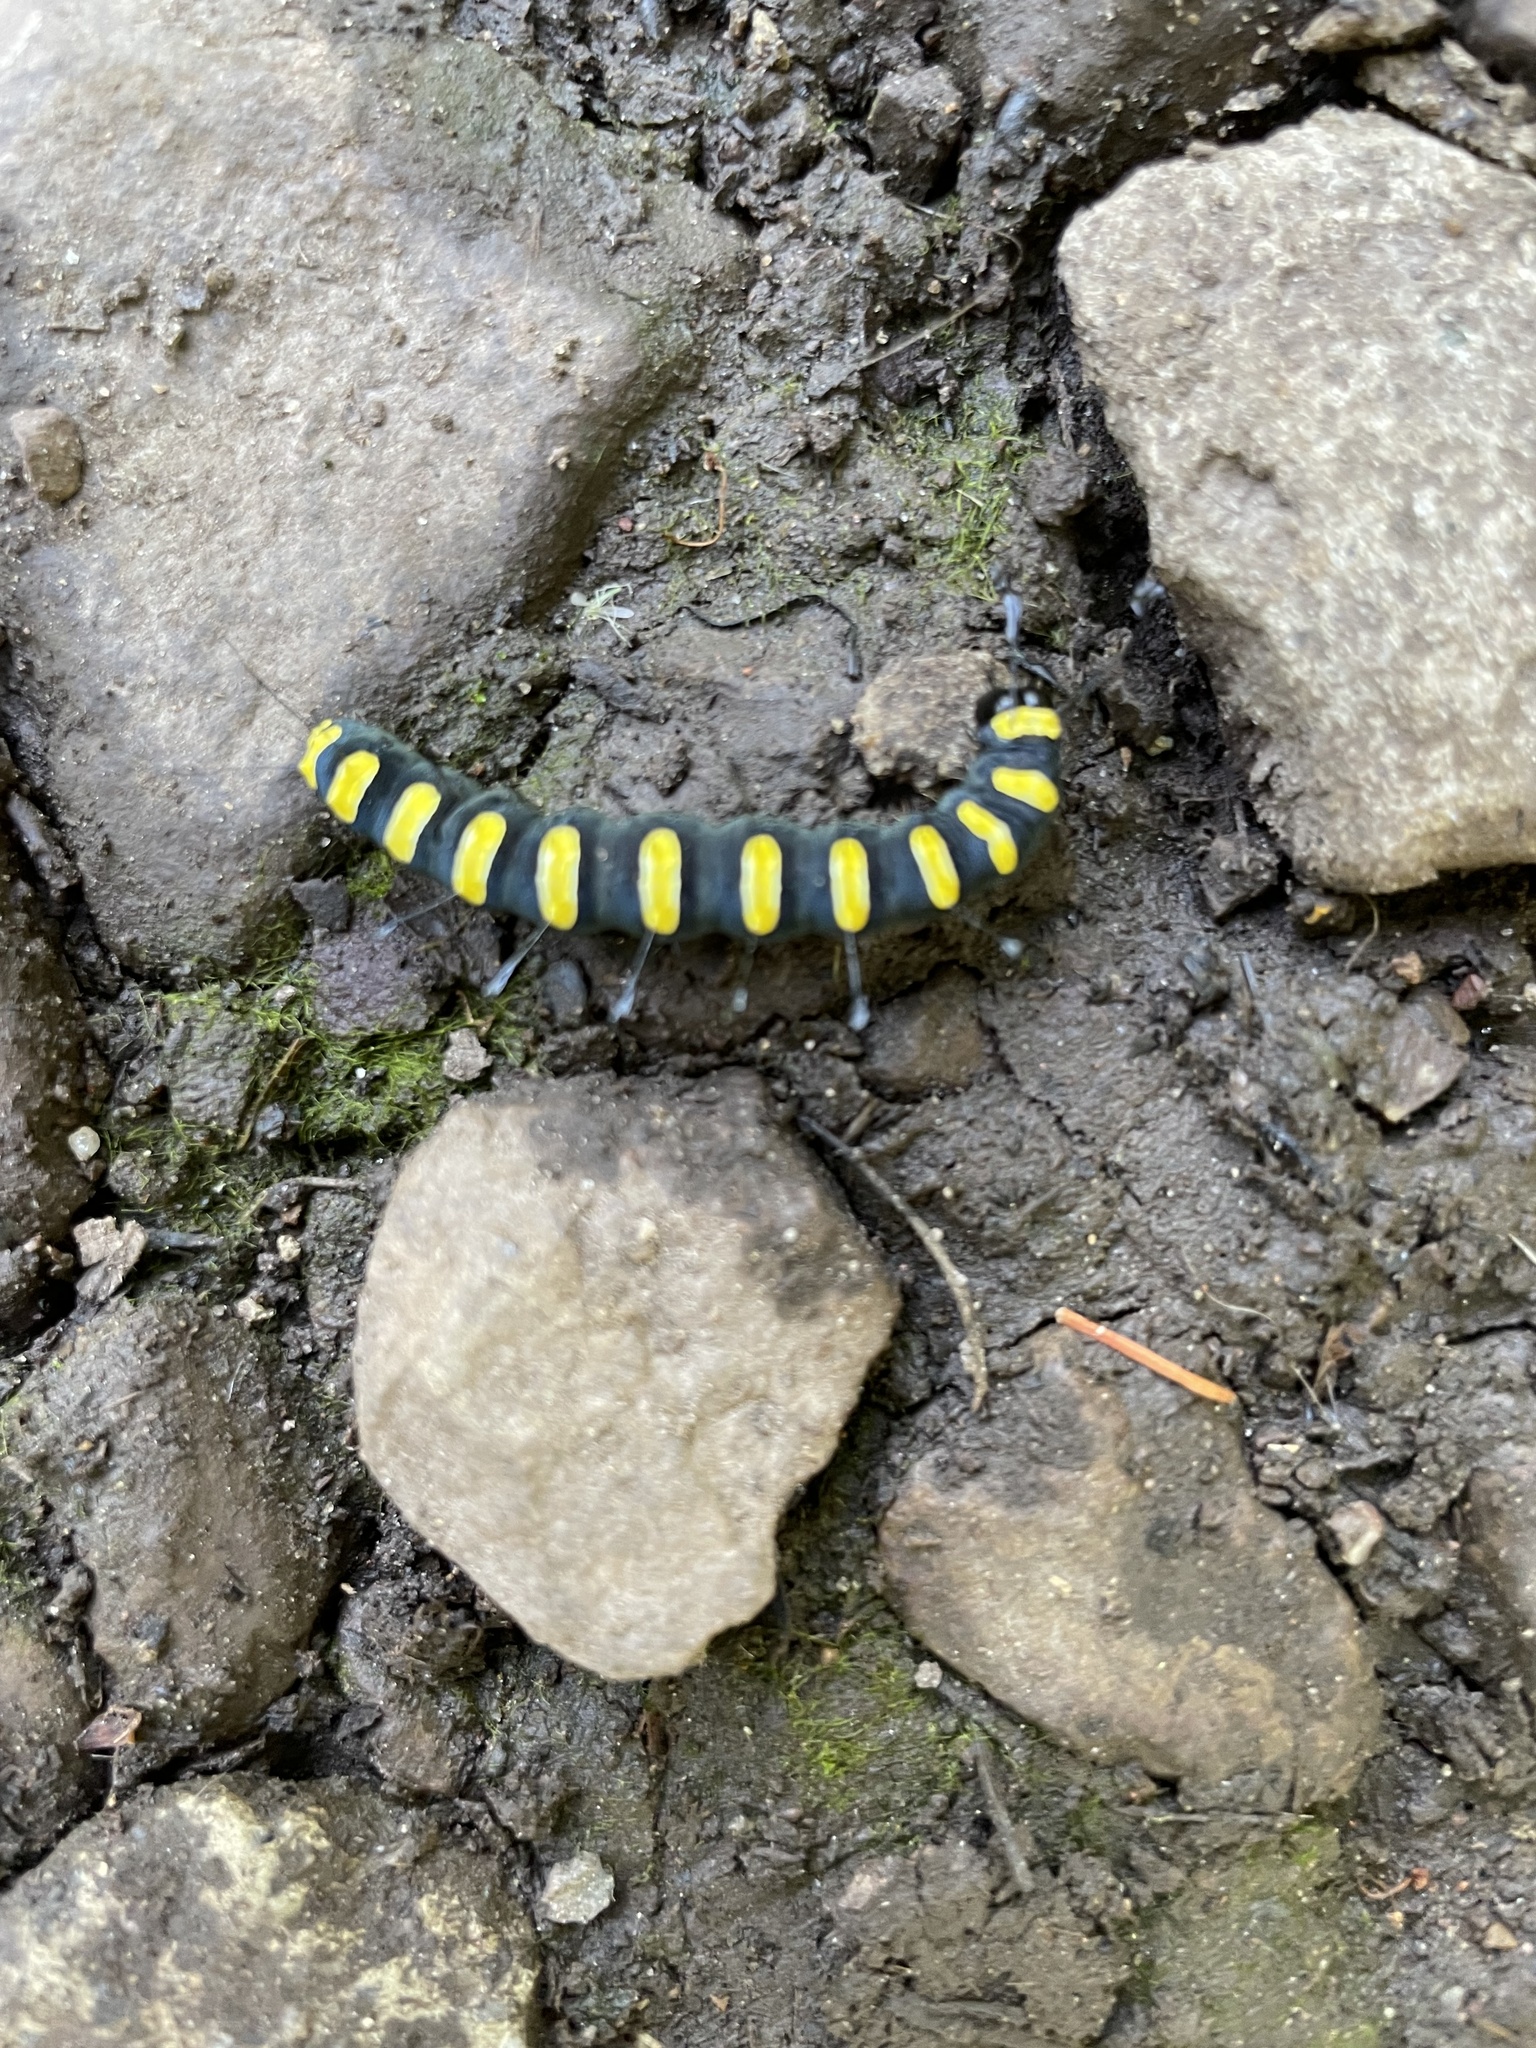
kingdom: Animalia
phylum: Arthropoda
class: Insecta
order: Lepidoptera
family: Noctuidae
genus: Acronicta
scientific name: Acronicta alni
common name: Alder moth
